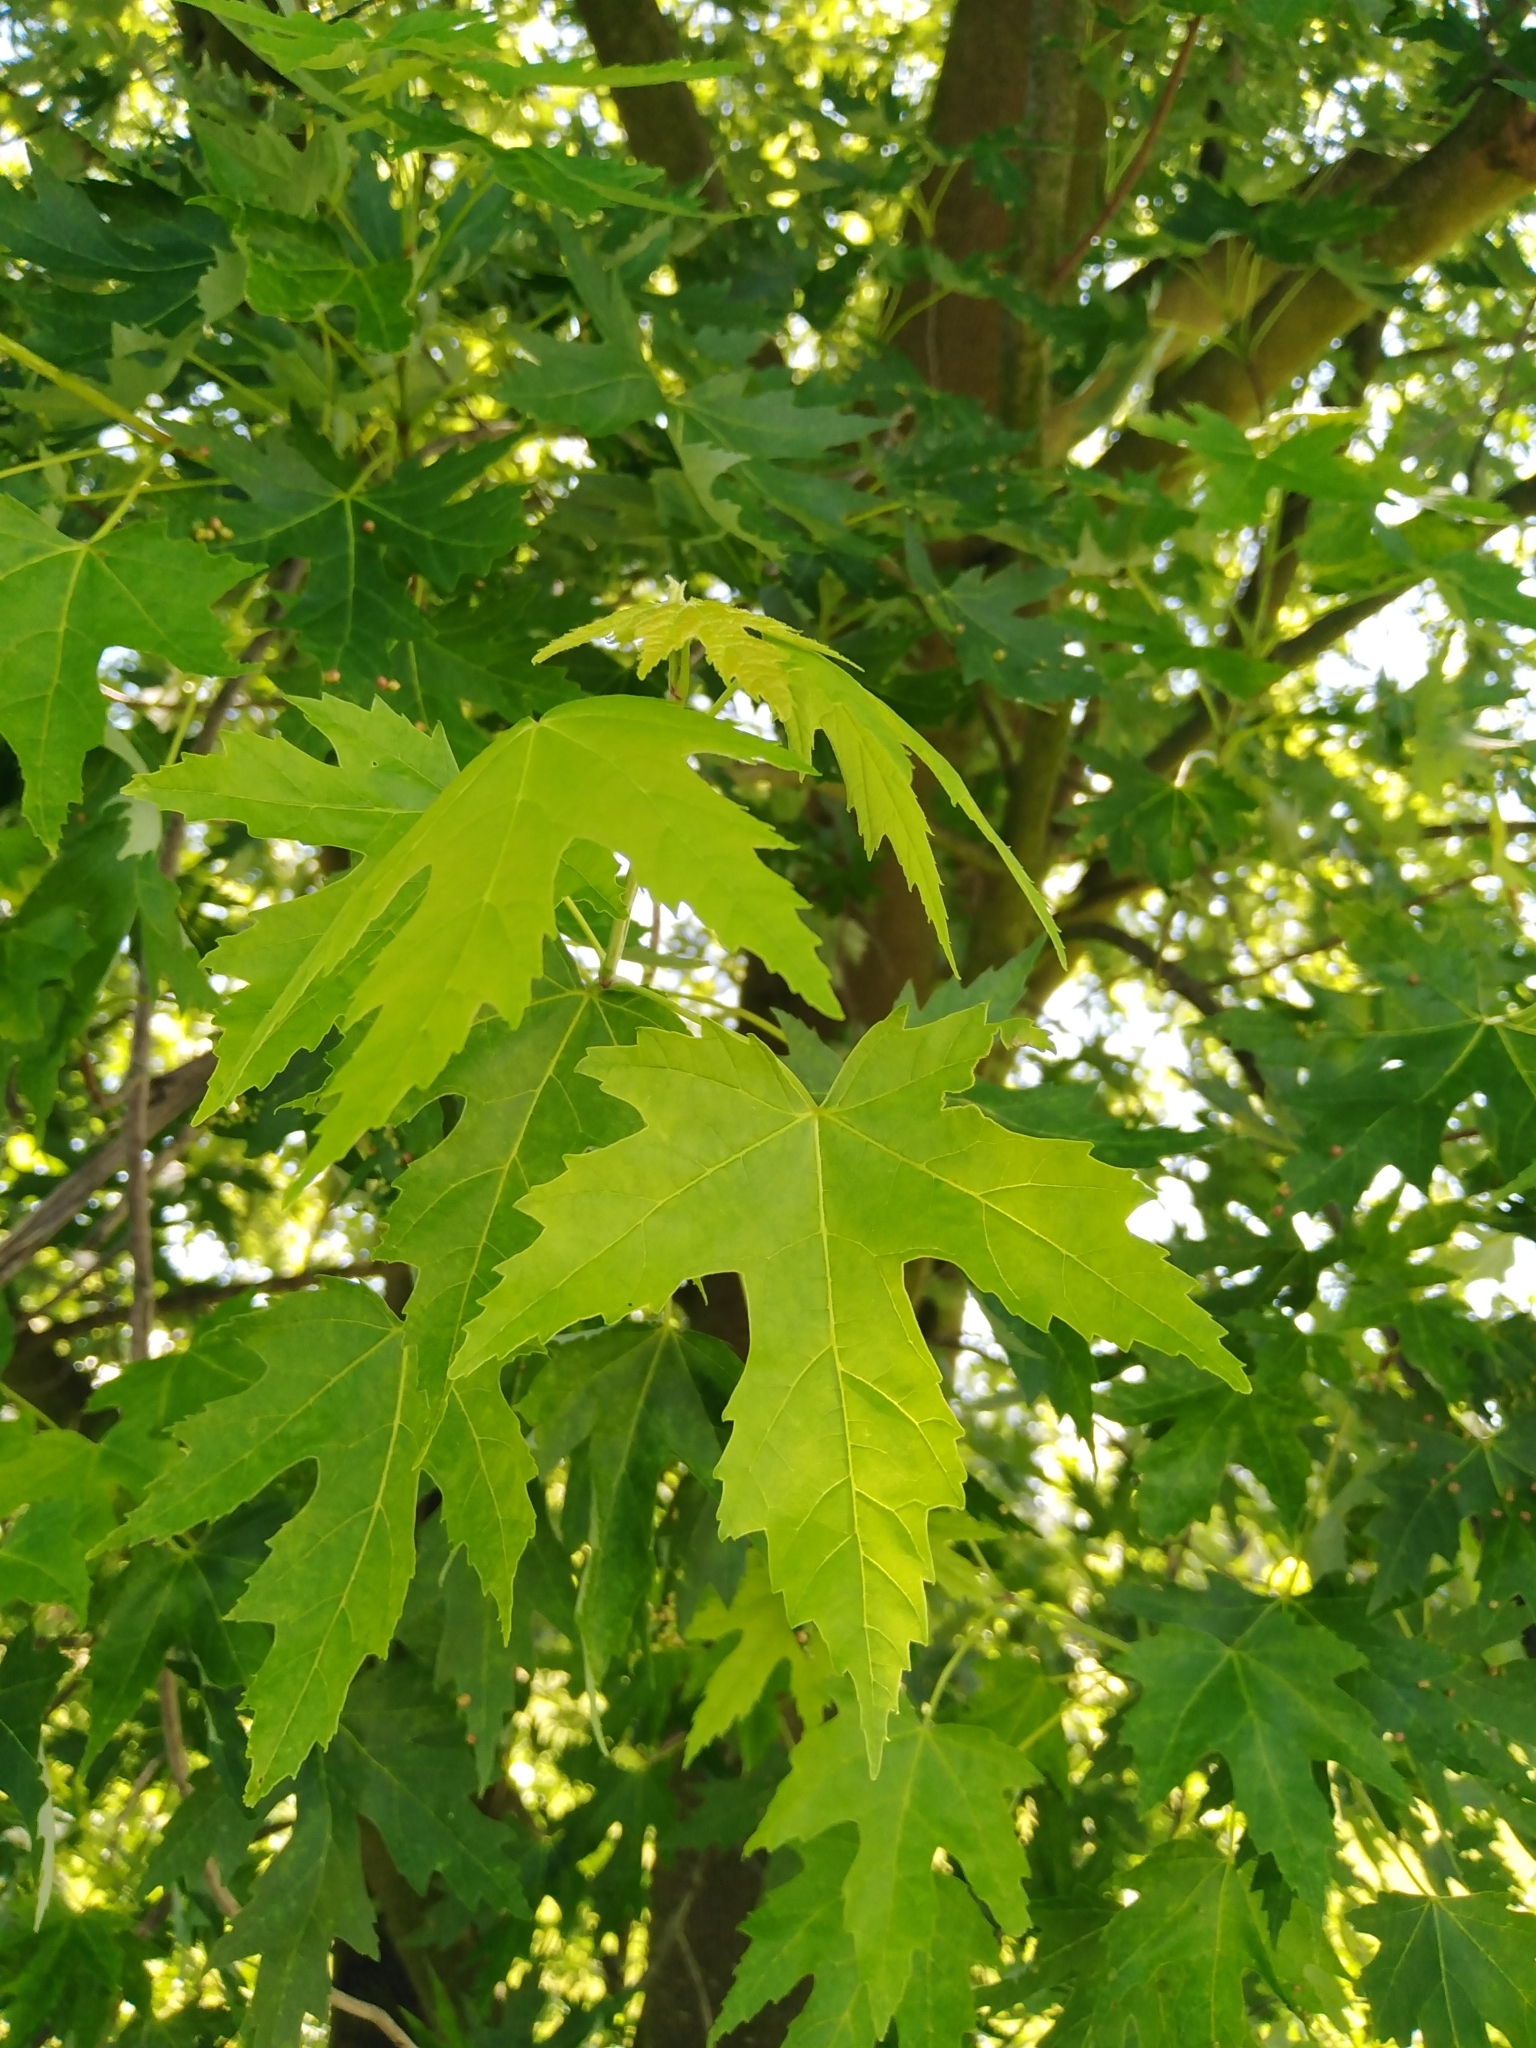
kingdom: Plantae
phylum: Tracheophyta
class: Magnoliopsida
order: Sapindales
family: Sapindaceae
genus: Acer
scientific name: Acer saccharinum
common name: Silver maple
